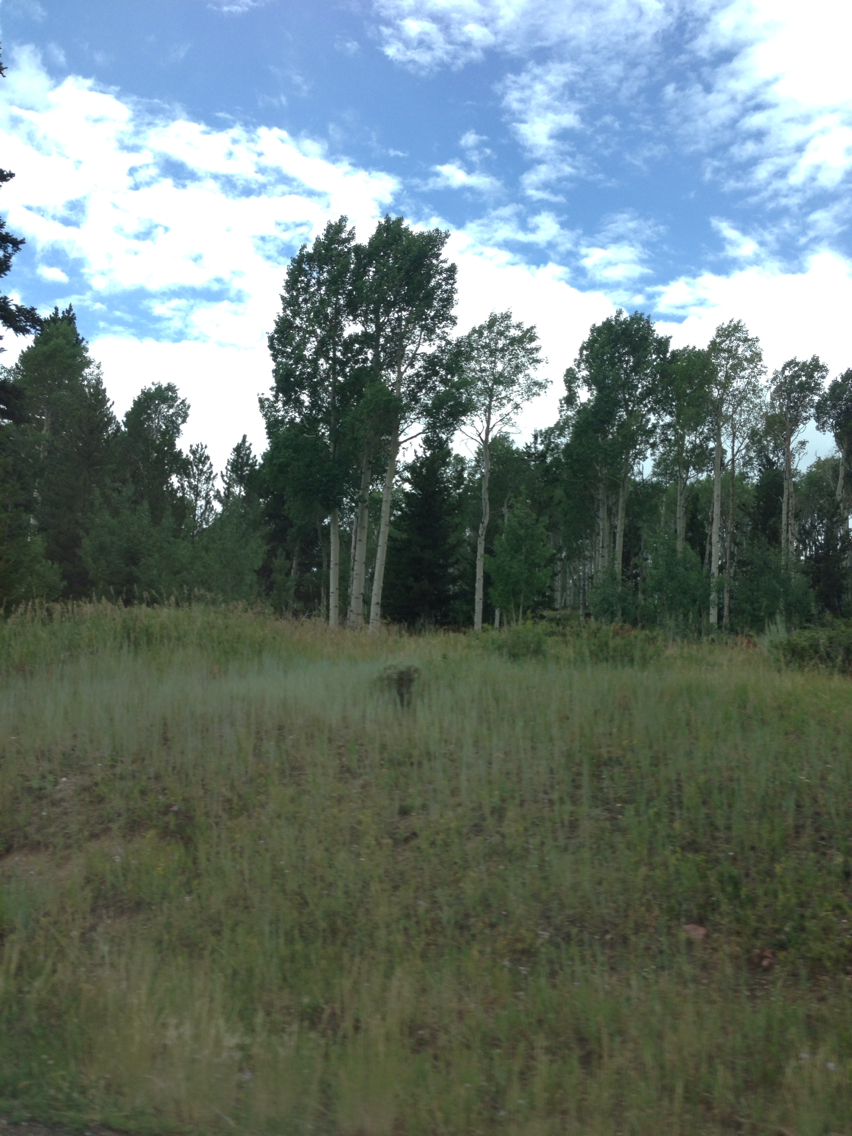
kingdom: Plantae
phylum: Tracheophyta
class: Magnoliopsida
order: Malpighiales
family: Salicaceae
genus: Populus
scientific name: Populus tremuloides
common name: Quaking aspen
